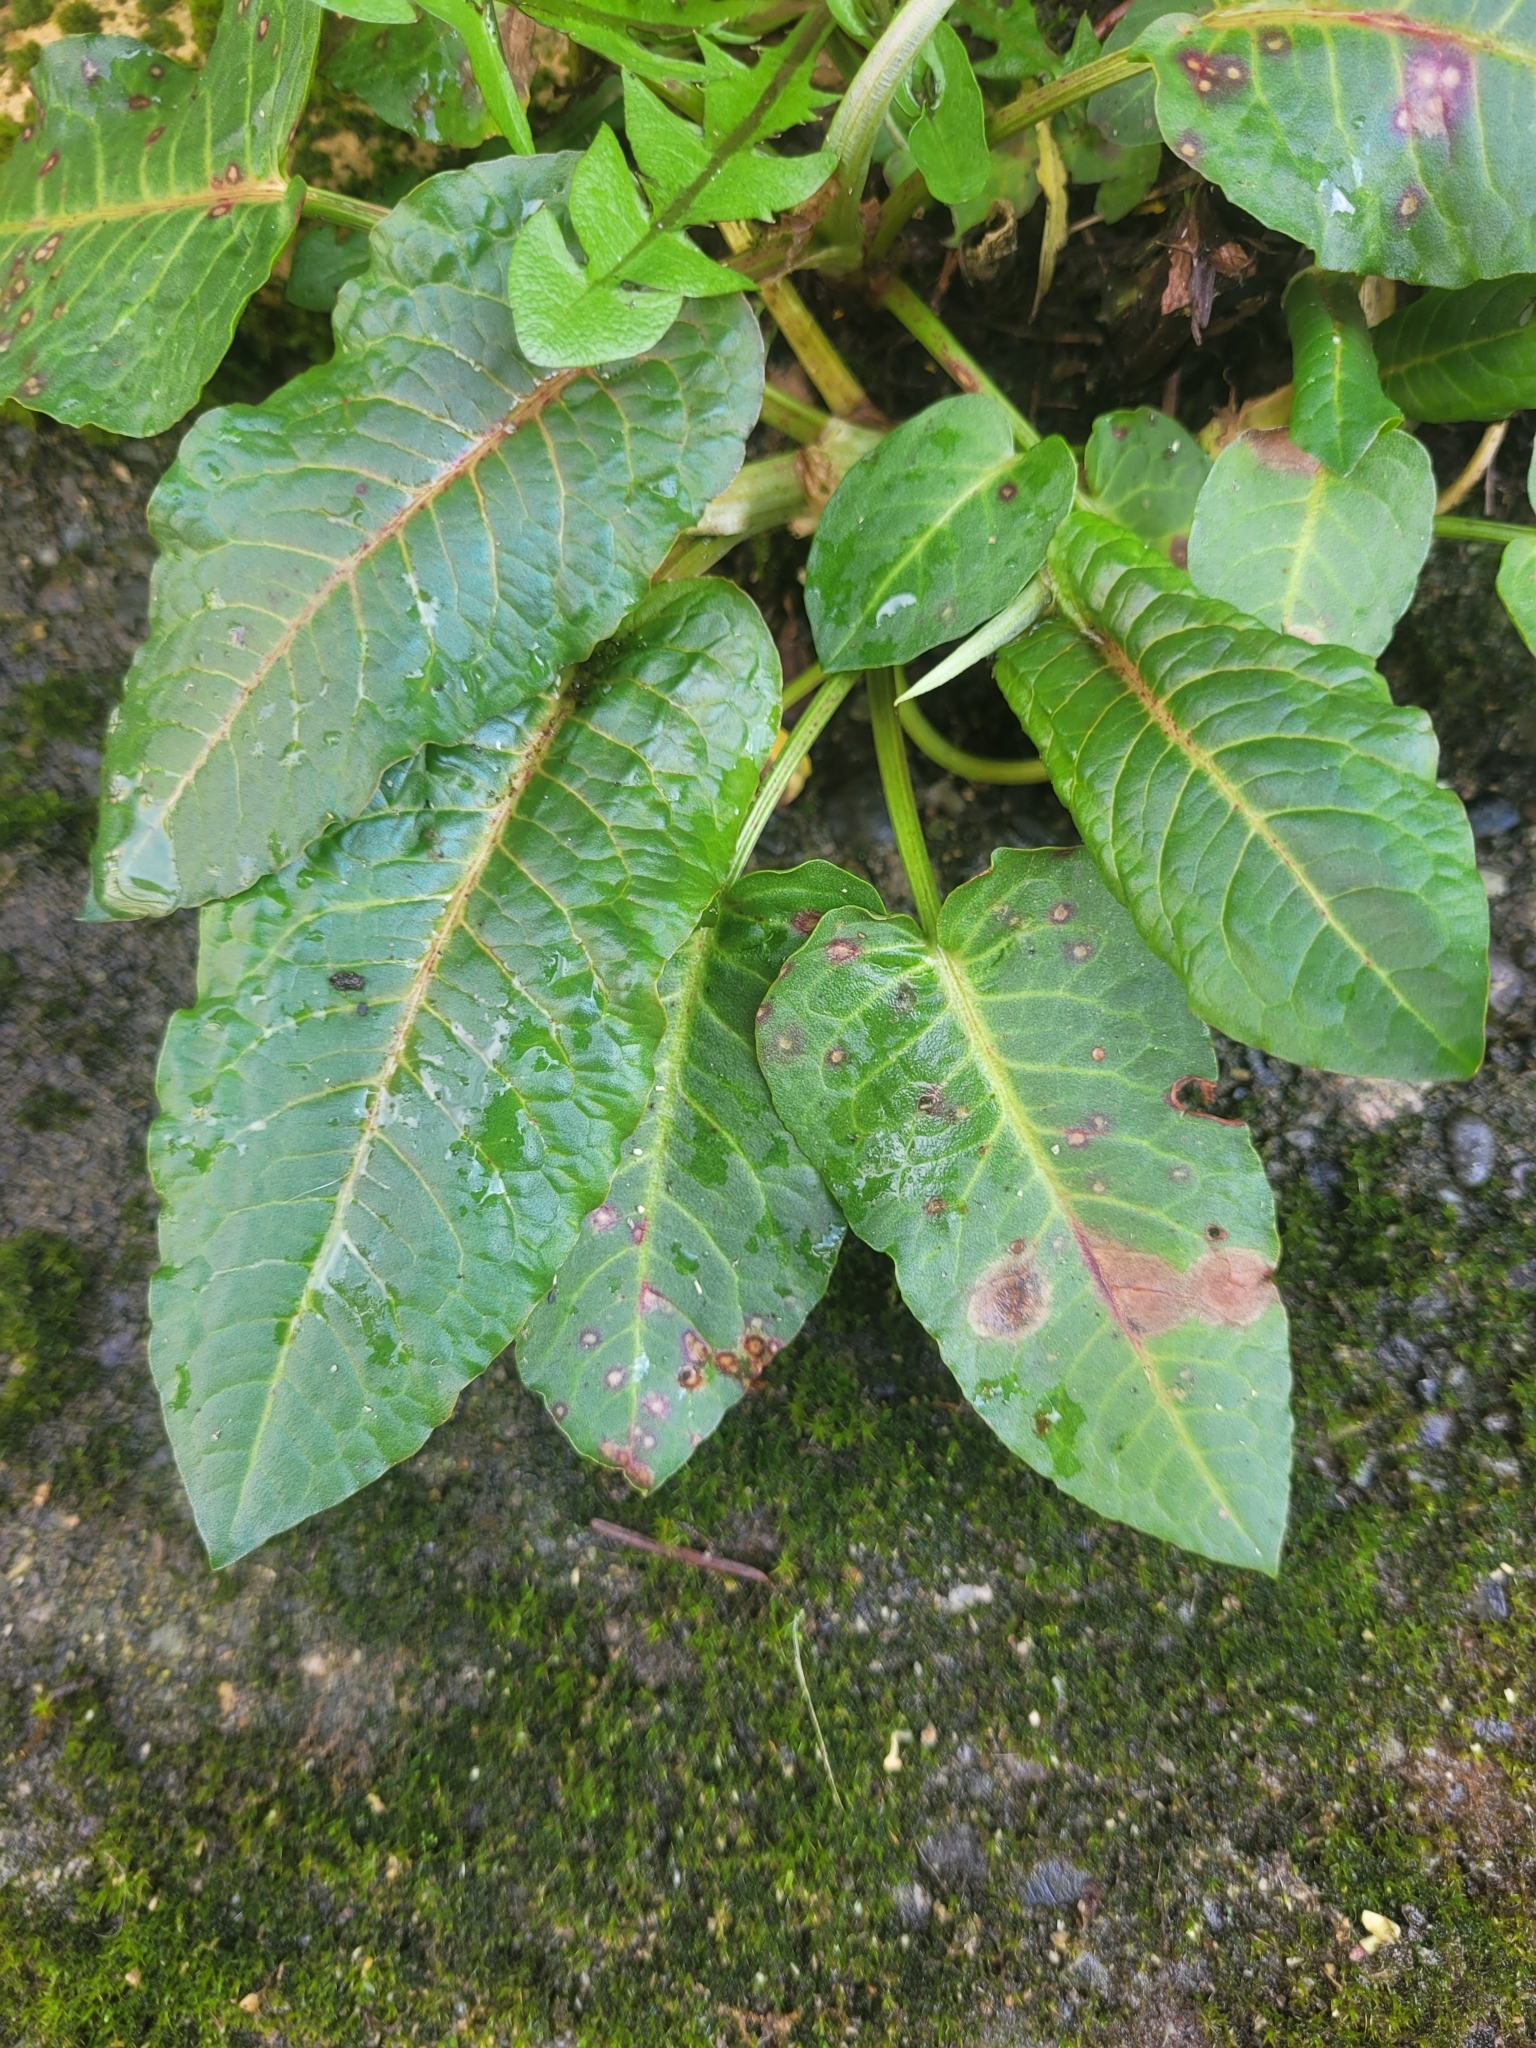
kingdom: Plantae
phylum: Tracheophyta
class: Magnoliopsida
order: Caryophyllales
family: Polygonaceae
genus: Rumex
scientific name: Rumex obtusifolius
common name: Bitter dock
